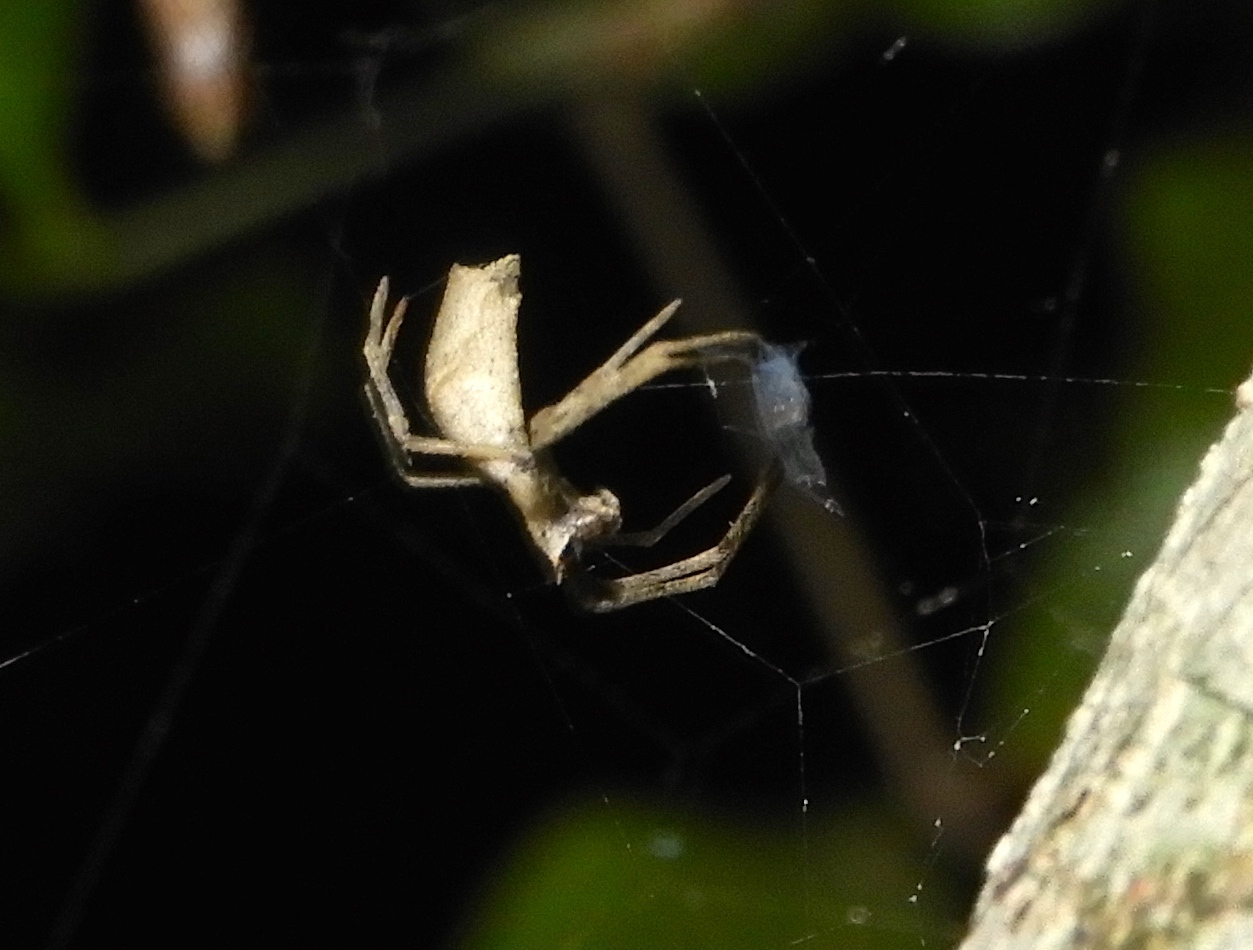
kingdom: Animalia
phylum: Arthropoda
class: Arachnida
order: Araneae
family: Deinopidae
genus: Deinopis
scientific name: Deinopis aurita
